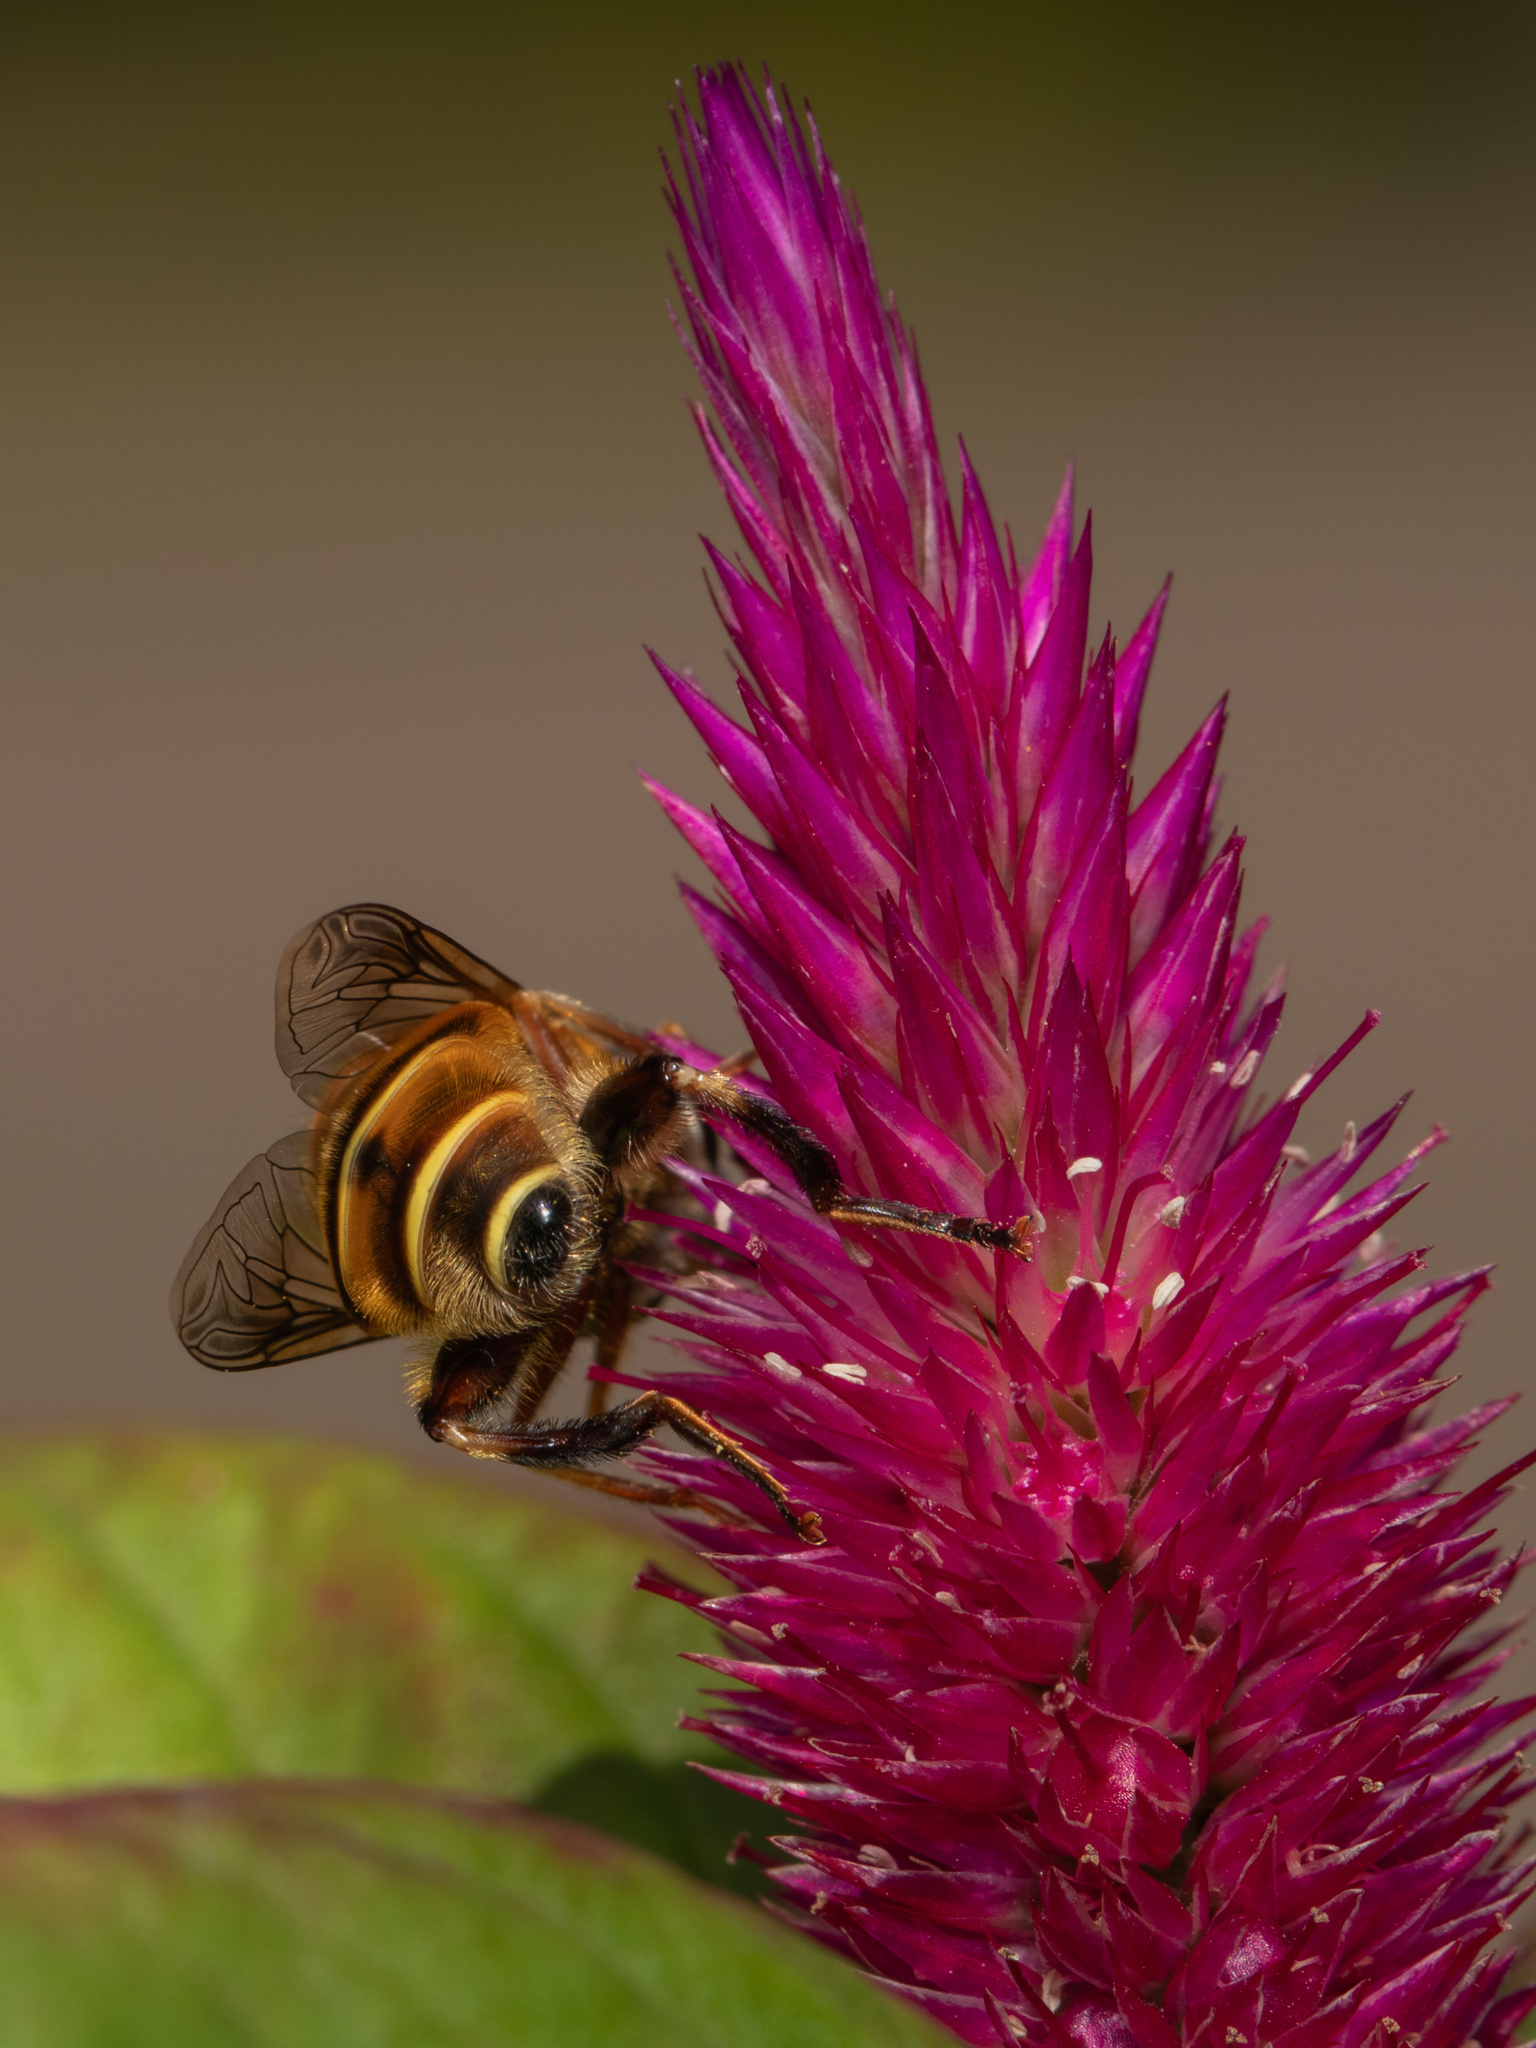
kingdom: Animalia
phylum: Arthropoda
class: Insecta
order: Diptera
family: Syrphidae
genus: Palpada
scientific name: Palpada vinetorum
